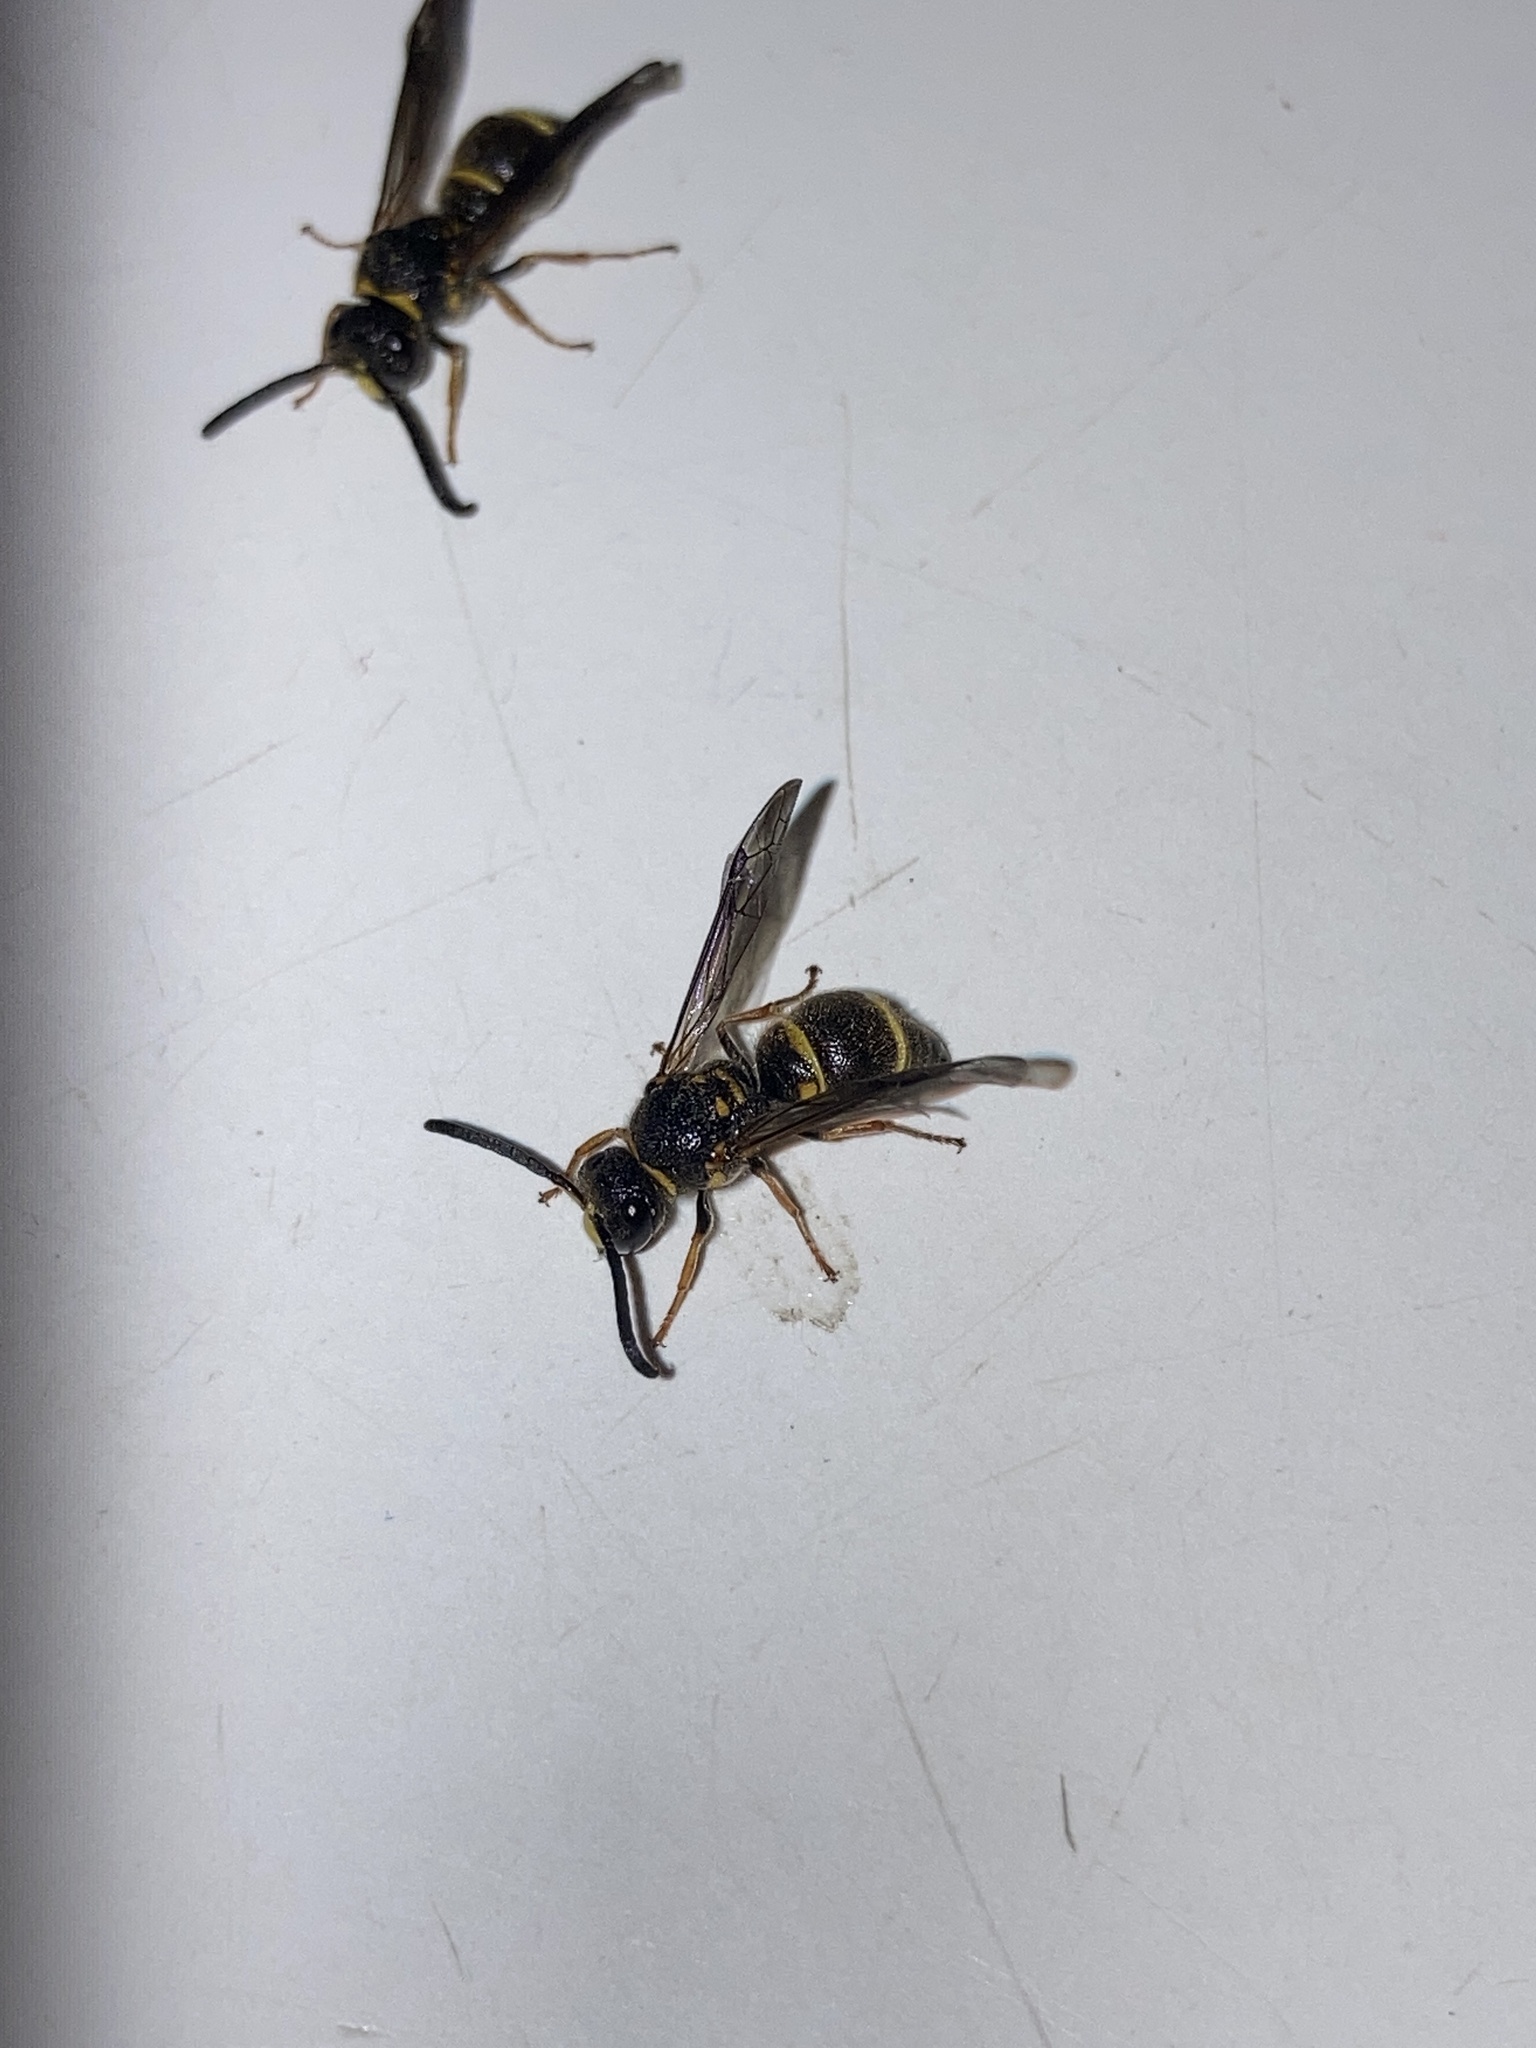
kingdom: Animalia
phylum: Arthropoda
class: Insecta
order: Hymenoptera
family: Vespidae
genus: Ancistrocerus
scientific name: Ancistrocerus campestris
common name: Smiling mason wasp
